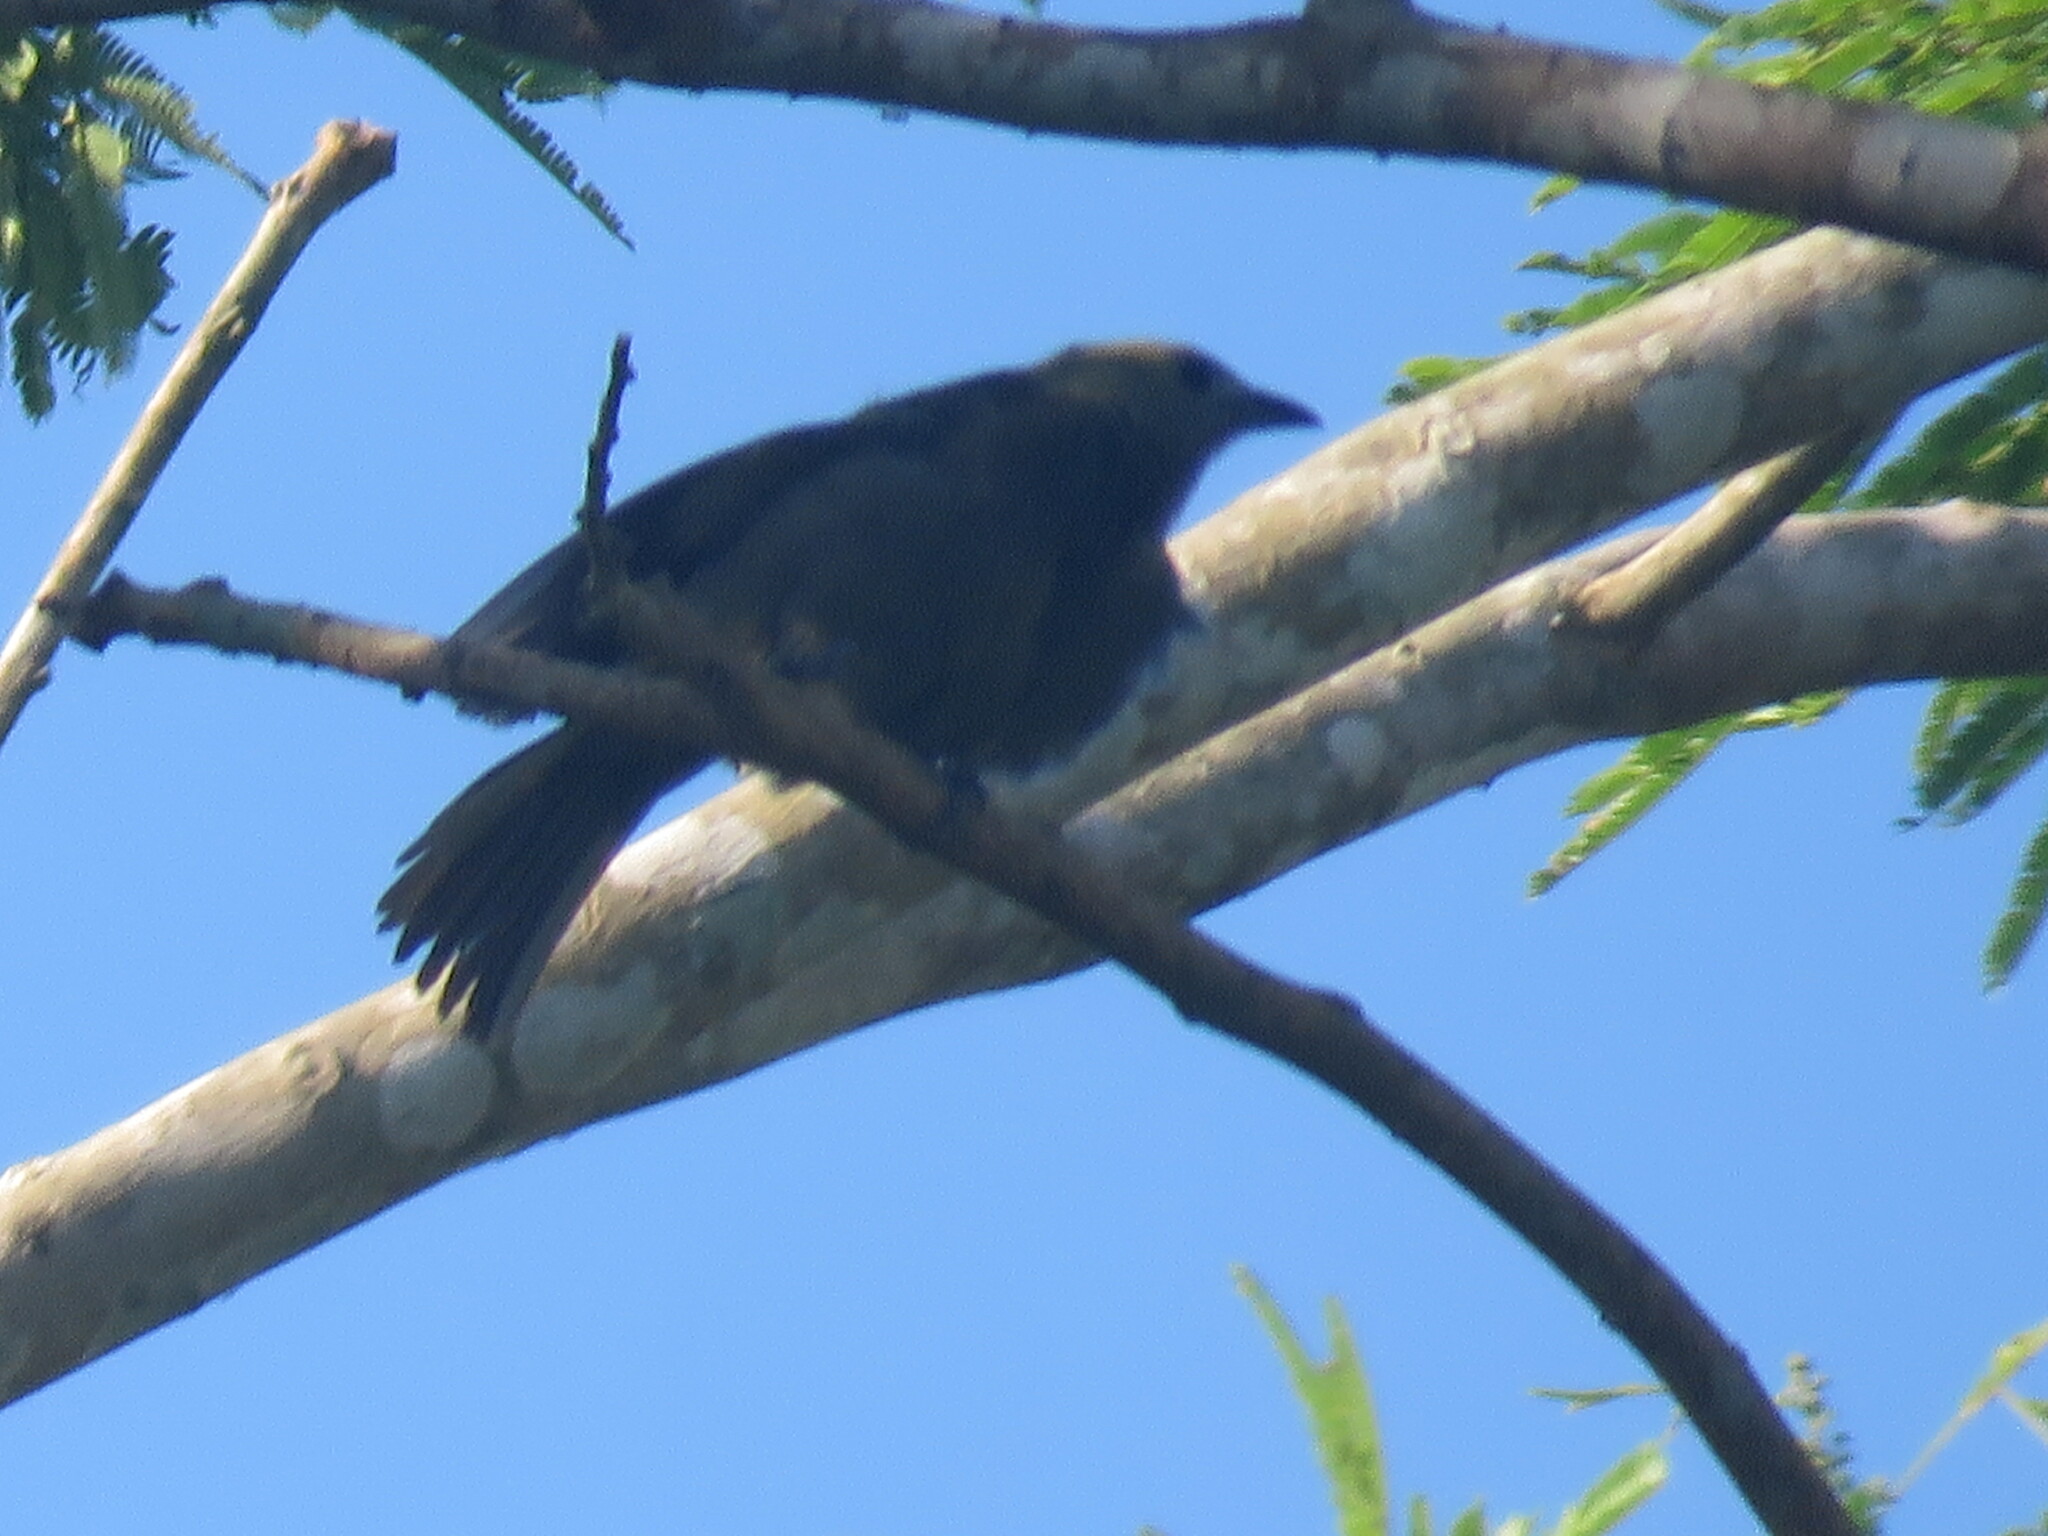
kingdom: Animalia
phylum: Chordata
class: Aves
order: Passeriformes
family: Thraupidae
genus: Thraupis
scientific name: Thraupis palmarum
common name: Palm tanager
